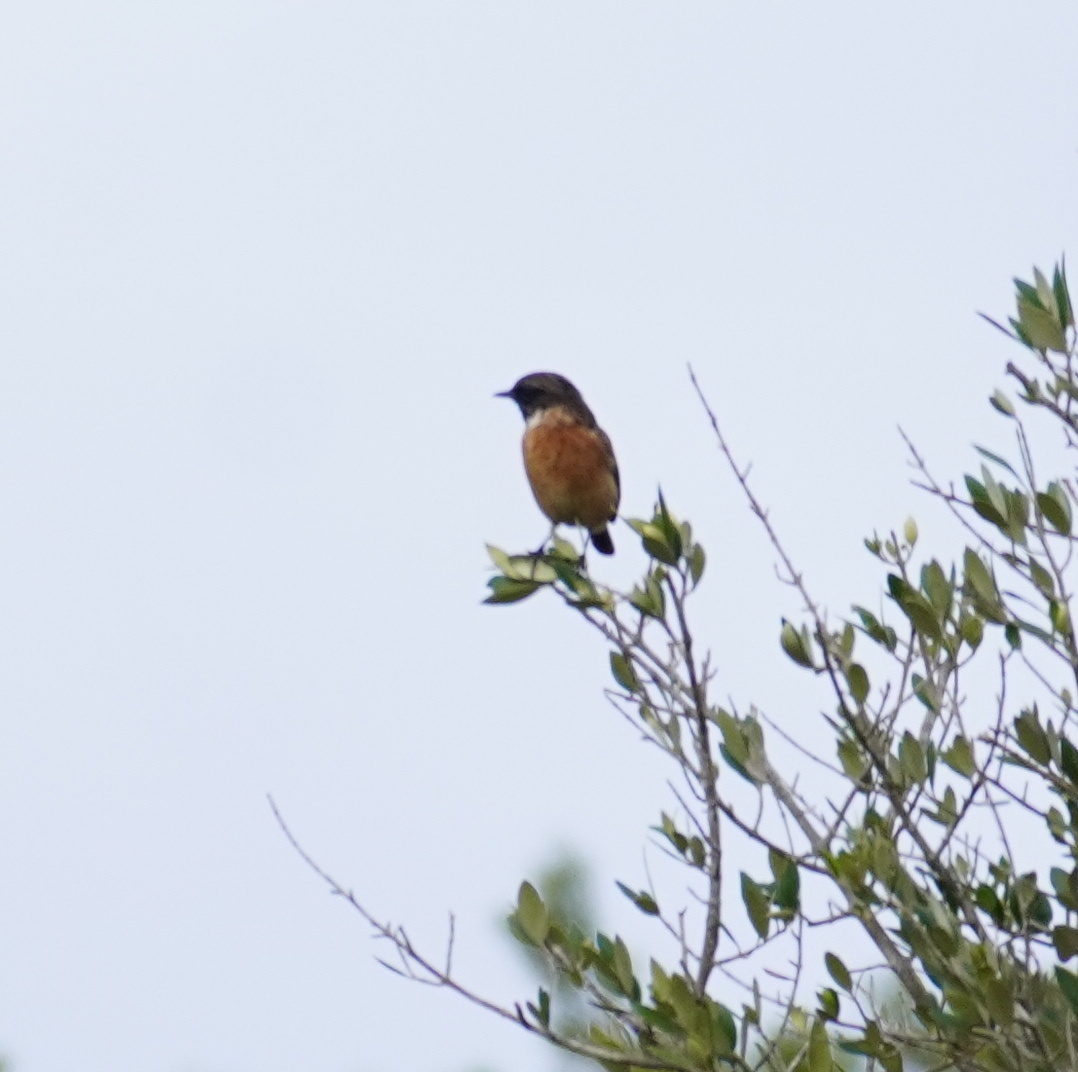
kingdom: Animalia
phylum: Chordata
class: Aves
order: Passeriformes
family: Muscicapidae
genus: Saxicola
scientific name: Saxicola rubicola
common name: European stonechat
